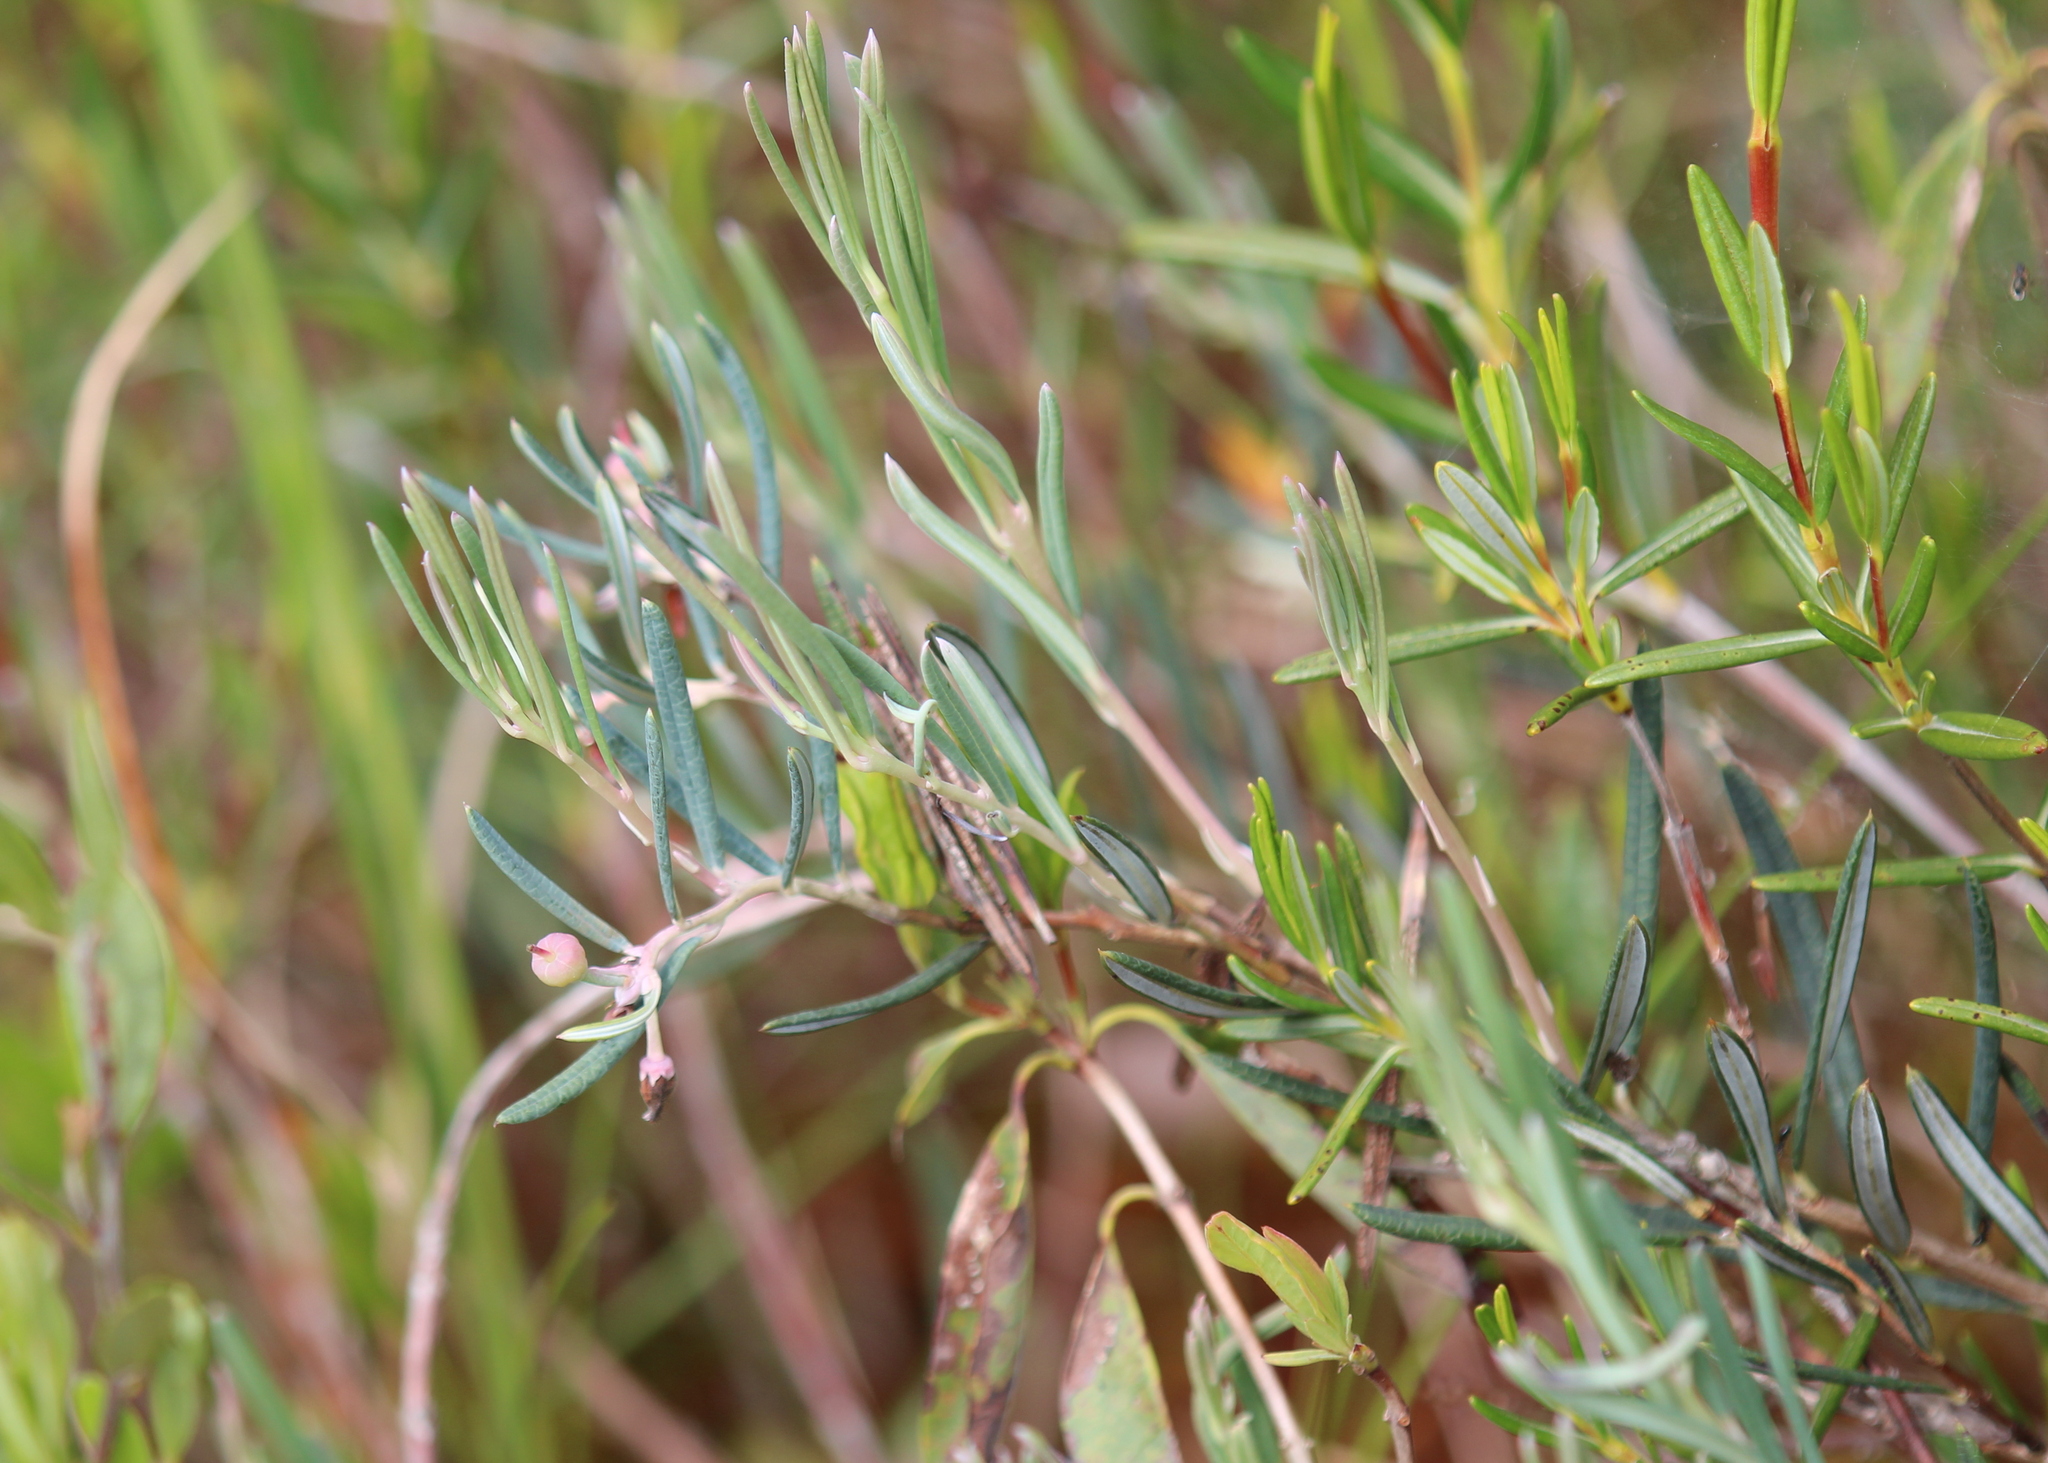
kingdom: Plantae
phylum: Tracheophyta
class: Magnoliopsida
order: Ericales
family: Ericaceae
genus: Andromeda
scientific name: Andromeda polifolia
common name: Bog-rosemary
